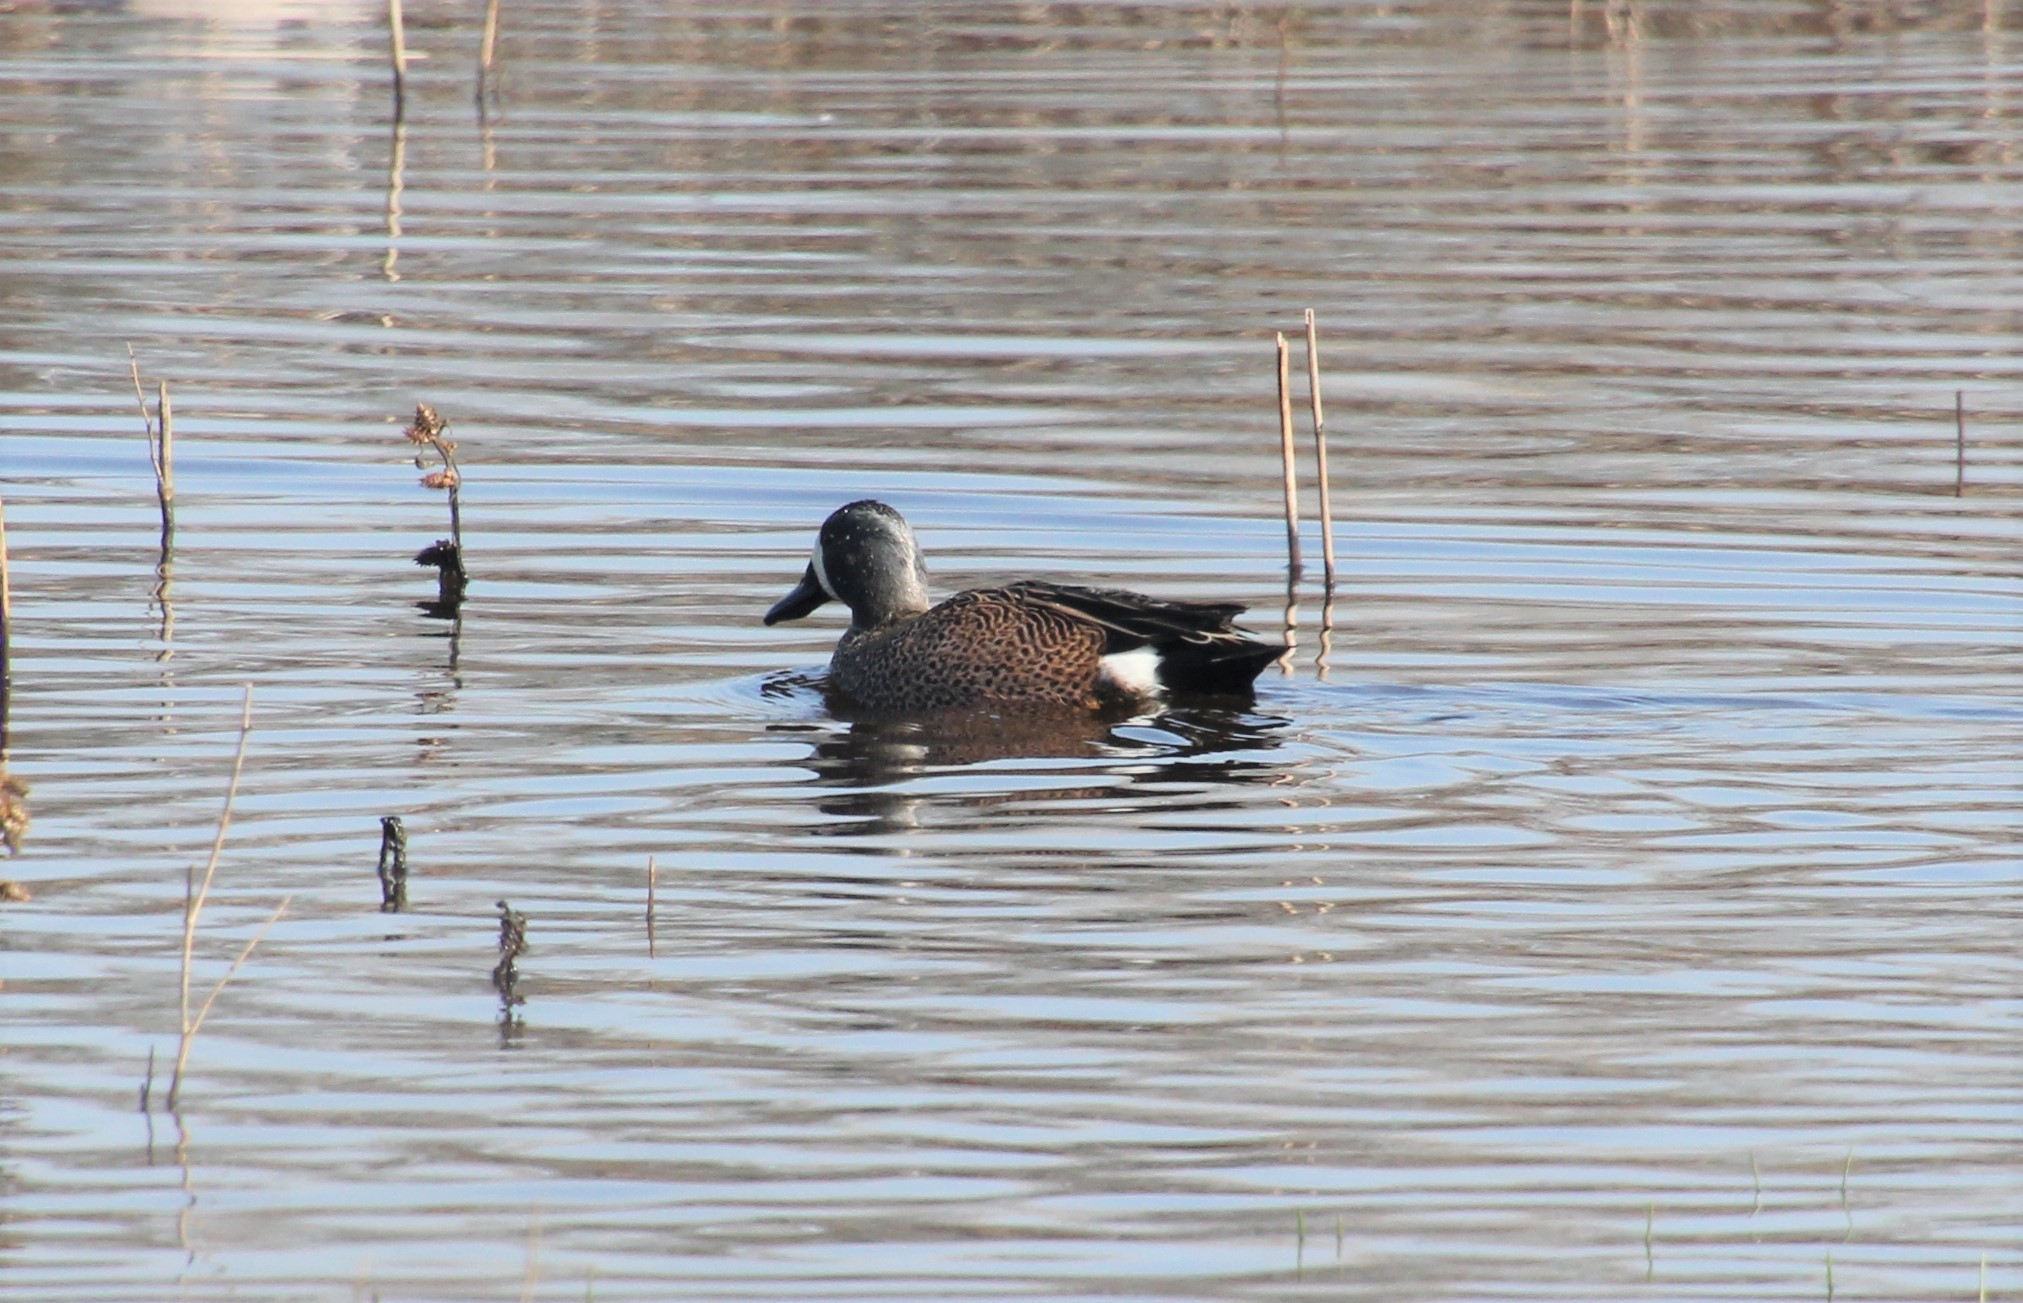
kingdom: Animalia
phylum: Chordata
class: Aves
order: Anseriformes
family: Anatidae
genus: Spatula
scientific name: Spatula discors
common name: Blue-winged teal
